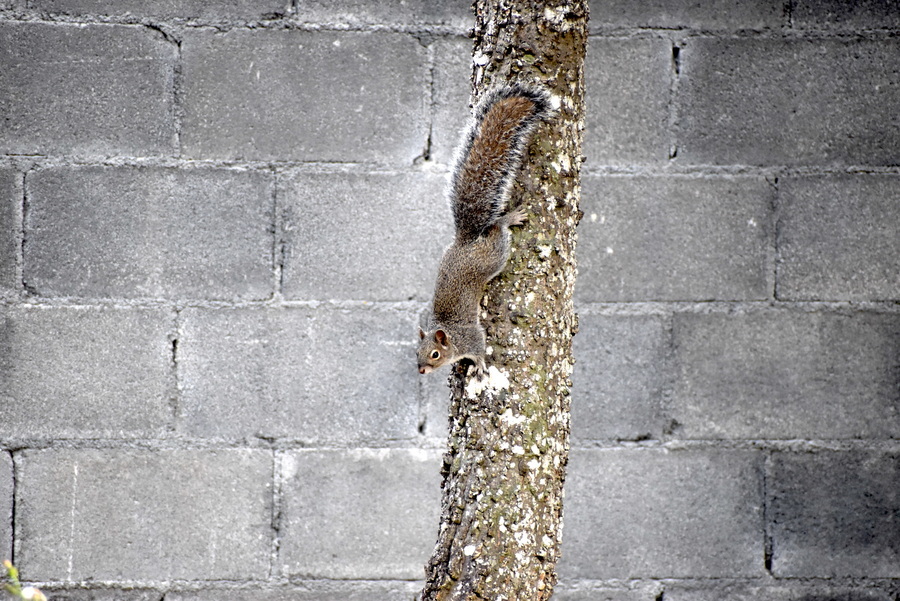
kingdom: Animalia
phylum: Chordata
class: Mammalia
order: Rodentia
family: Sciuridae
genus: Sciurus
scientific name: Sciurus alleni
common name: Allen's squirrel
